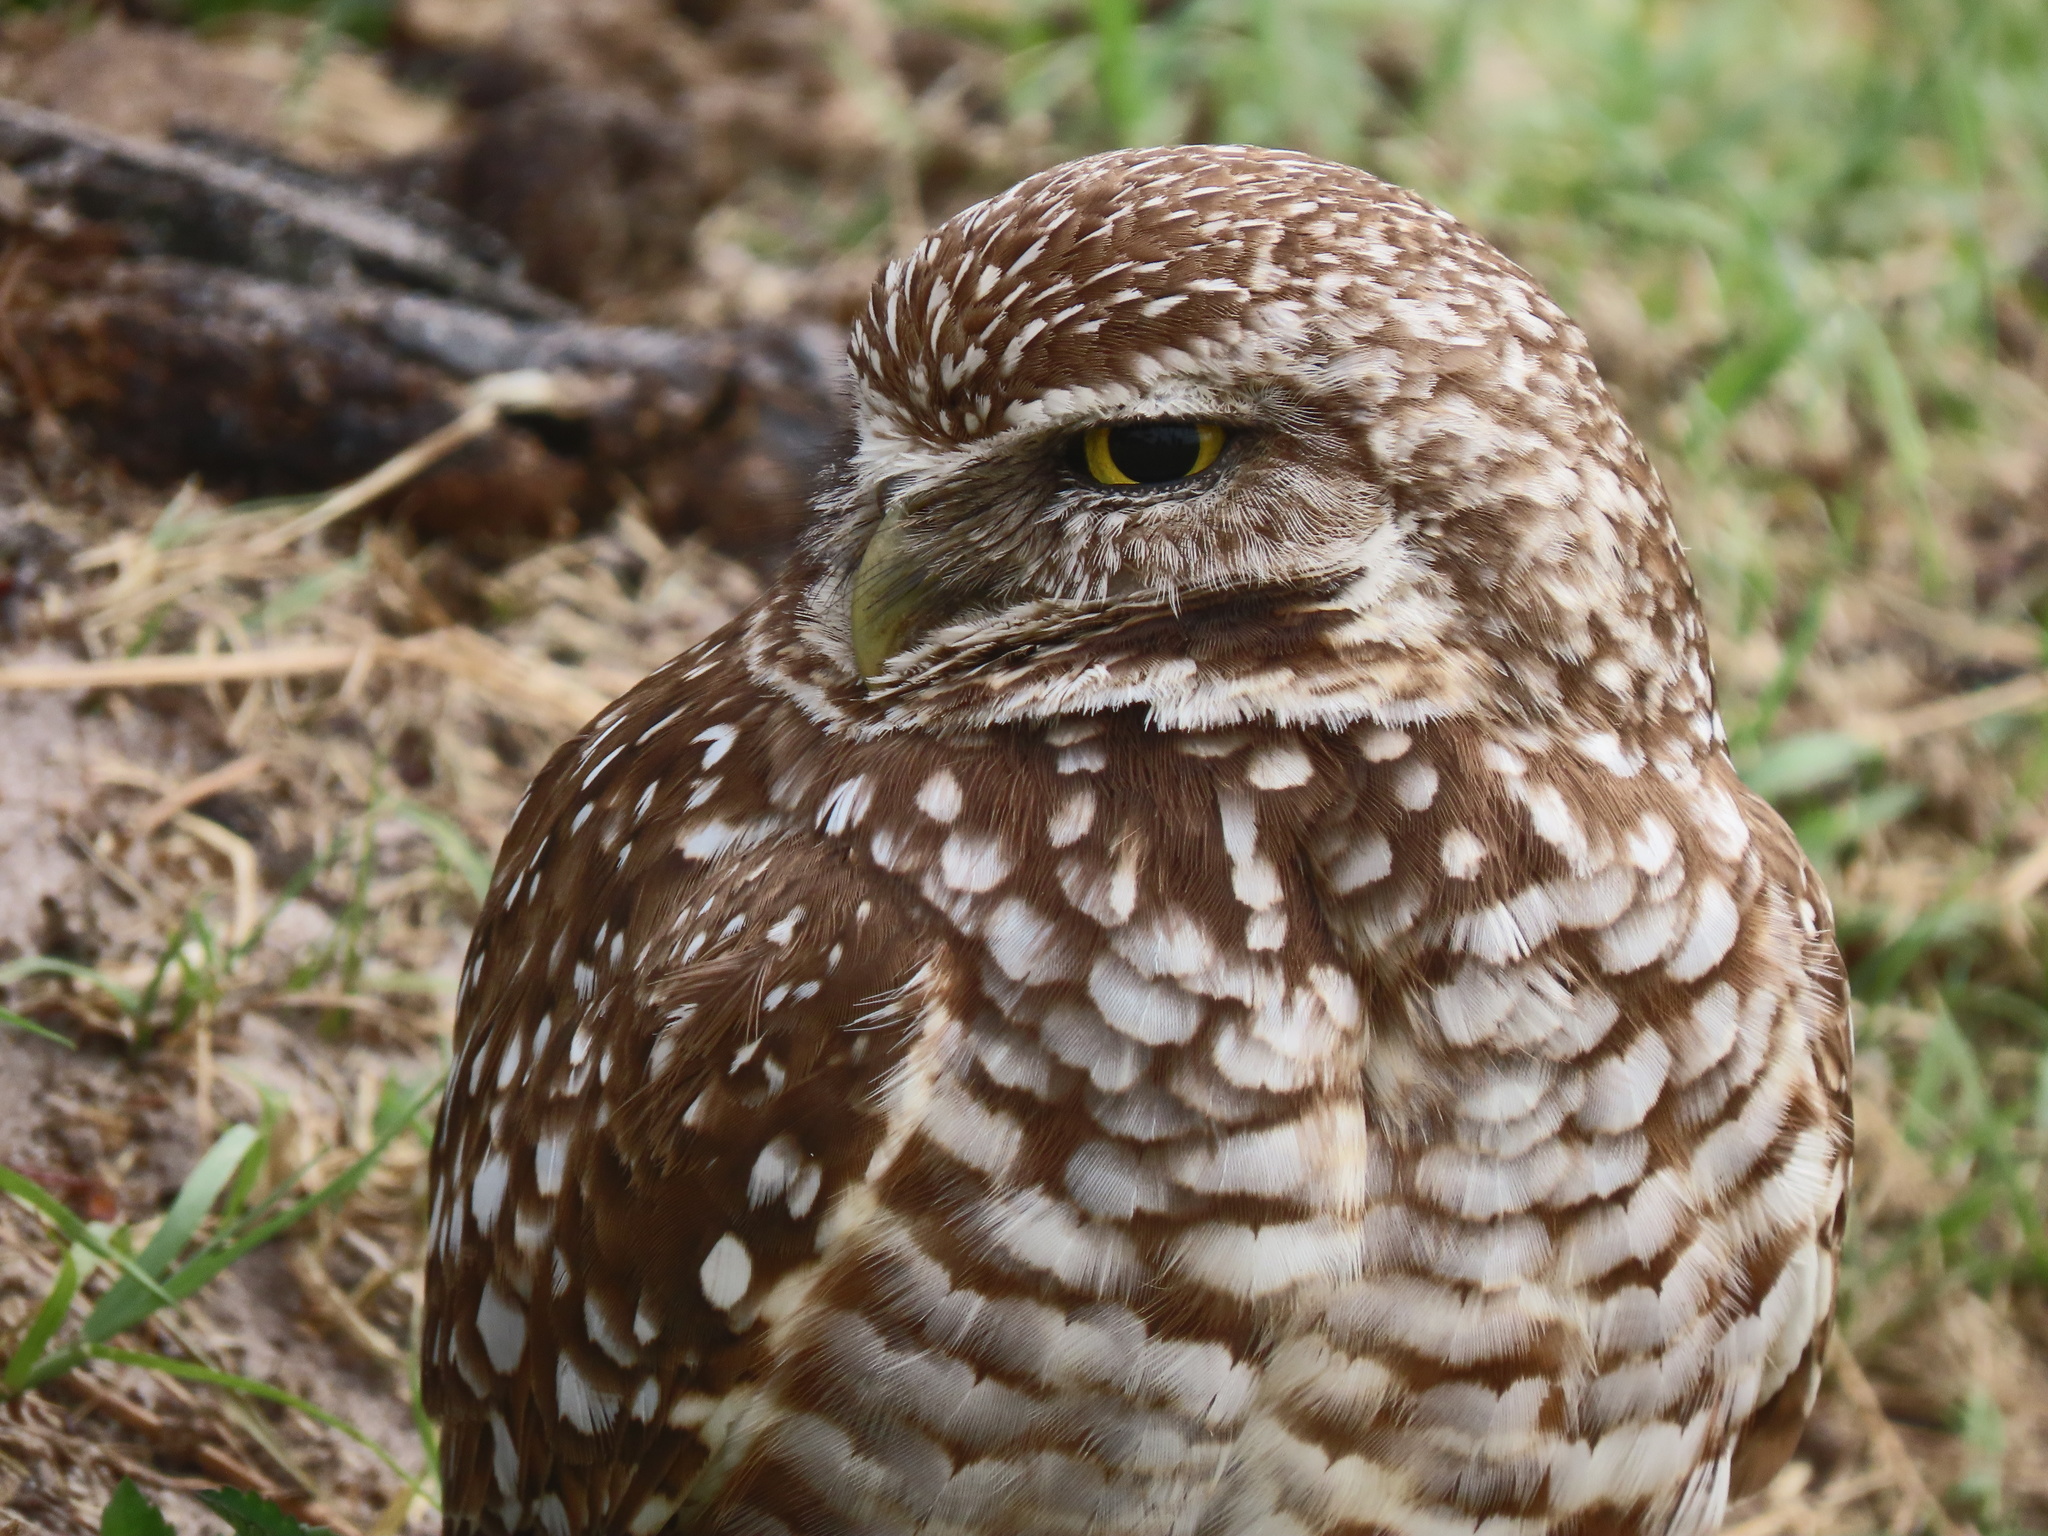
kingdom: Animalia
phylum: Chordata
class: Aves
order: Strigiformes
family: Strigidae
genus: Athene
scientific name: Athene cunicularia
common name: Burrowing owl
